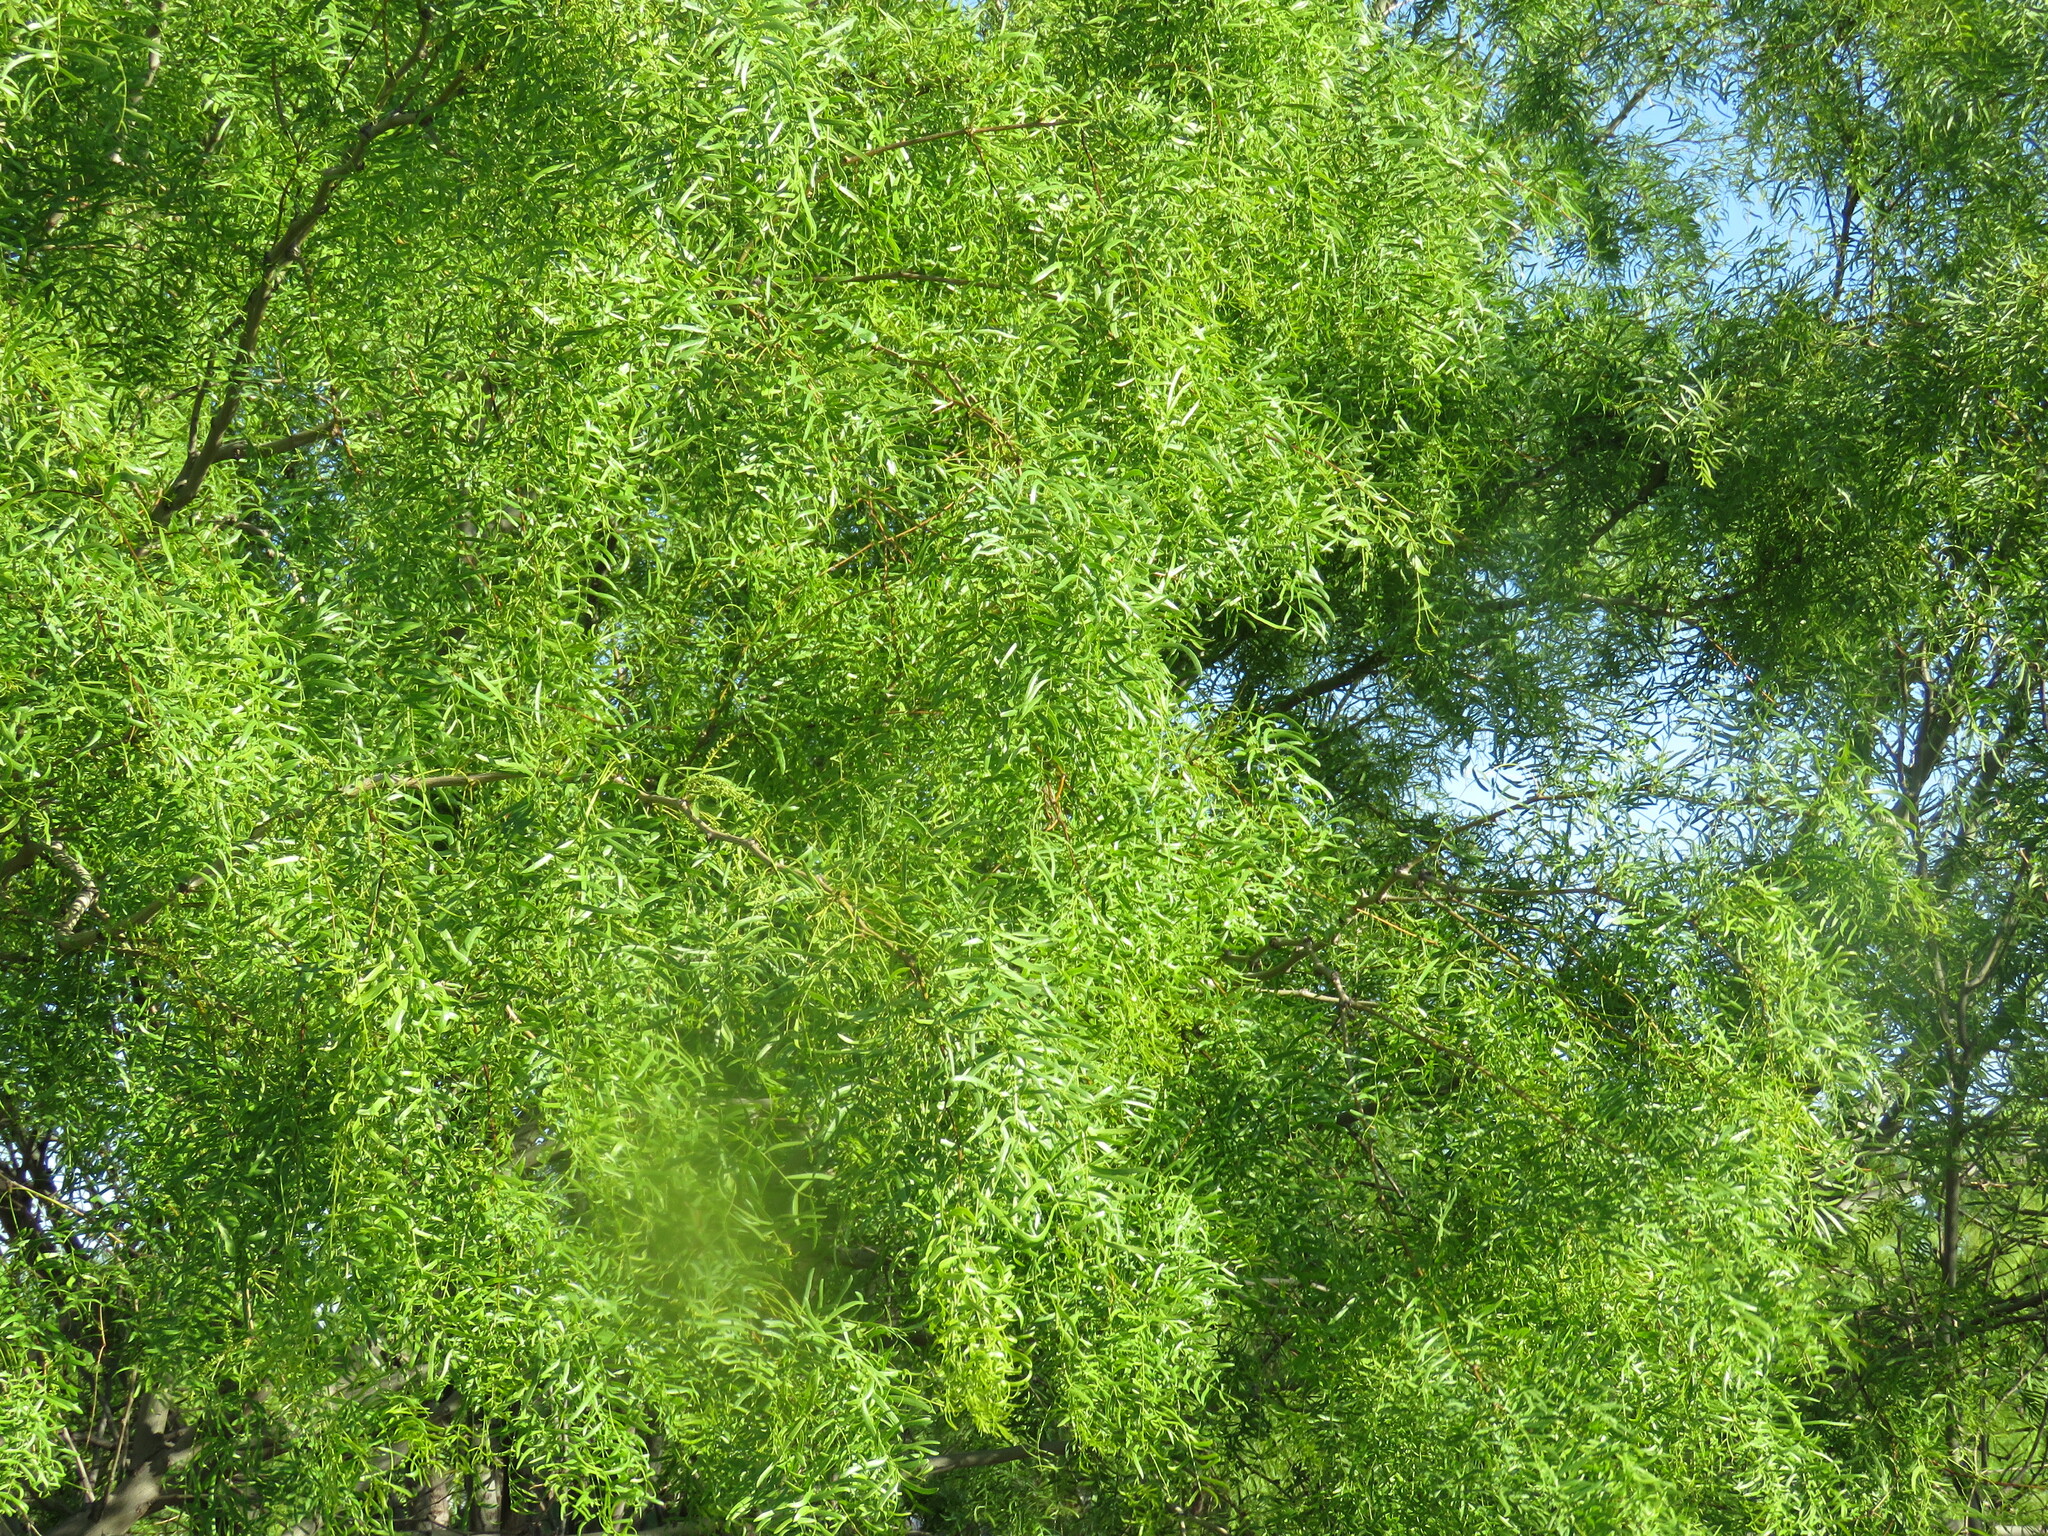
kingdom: Plantae
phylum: Tracheophyta
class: Magnoliopsida
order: Fabales
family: Fabaceae
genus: Prosopis
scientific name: Prosopis glandulosa
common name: Honey mesquite
